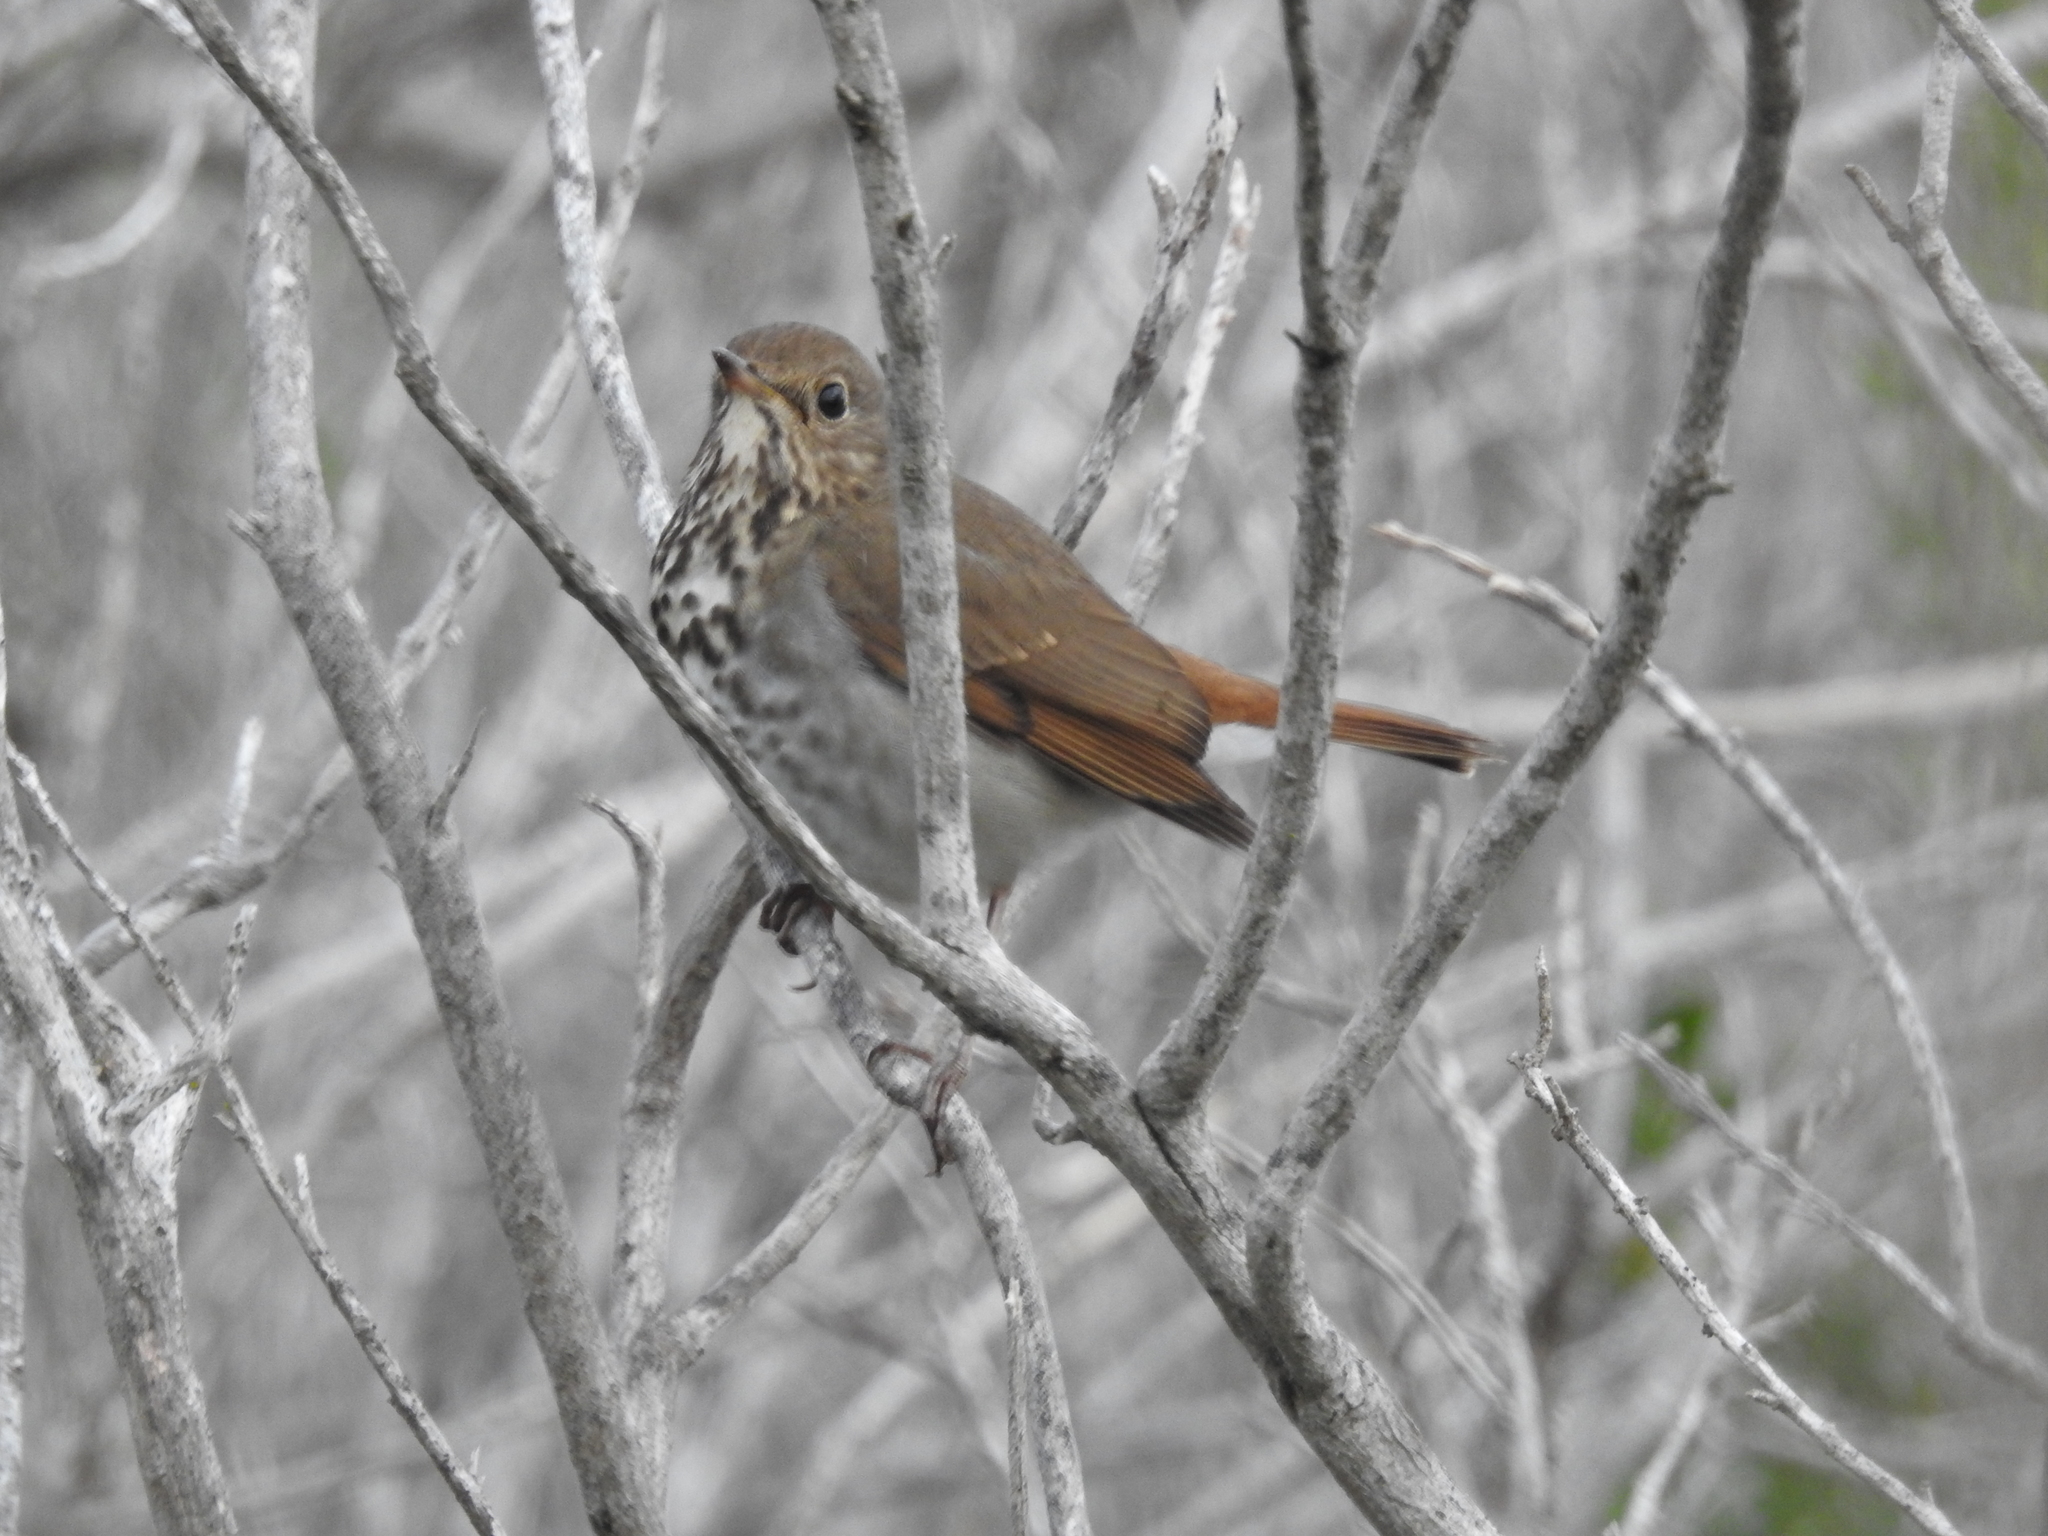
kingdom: Animalia
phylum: Chordata
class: Aves
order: Passeriformes
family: Turdidae
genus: Catharus
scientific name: Catharus guttatus
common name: Hermit thrush
